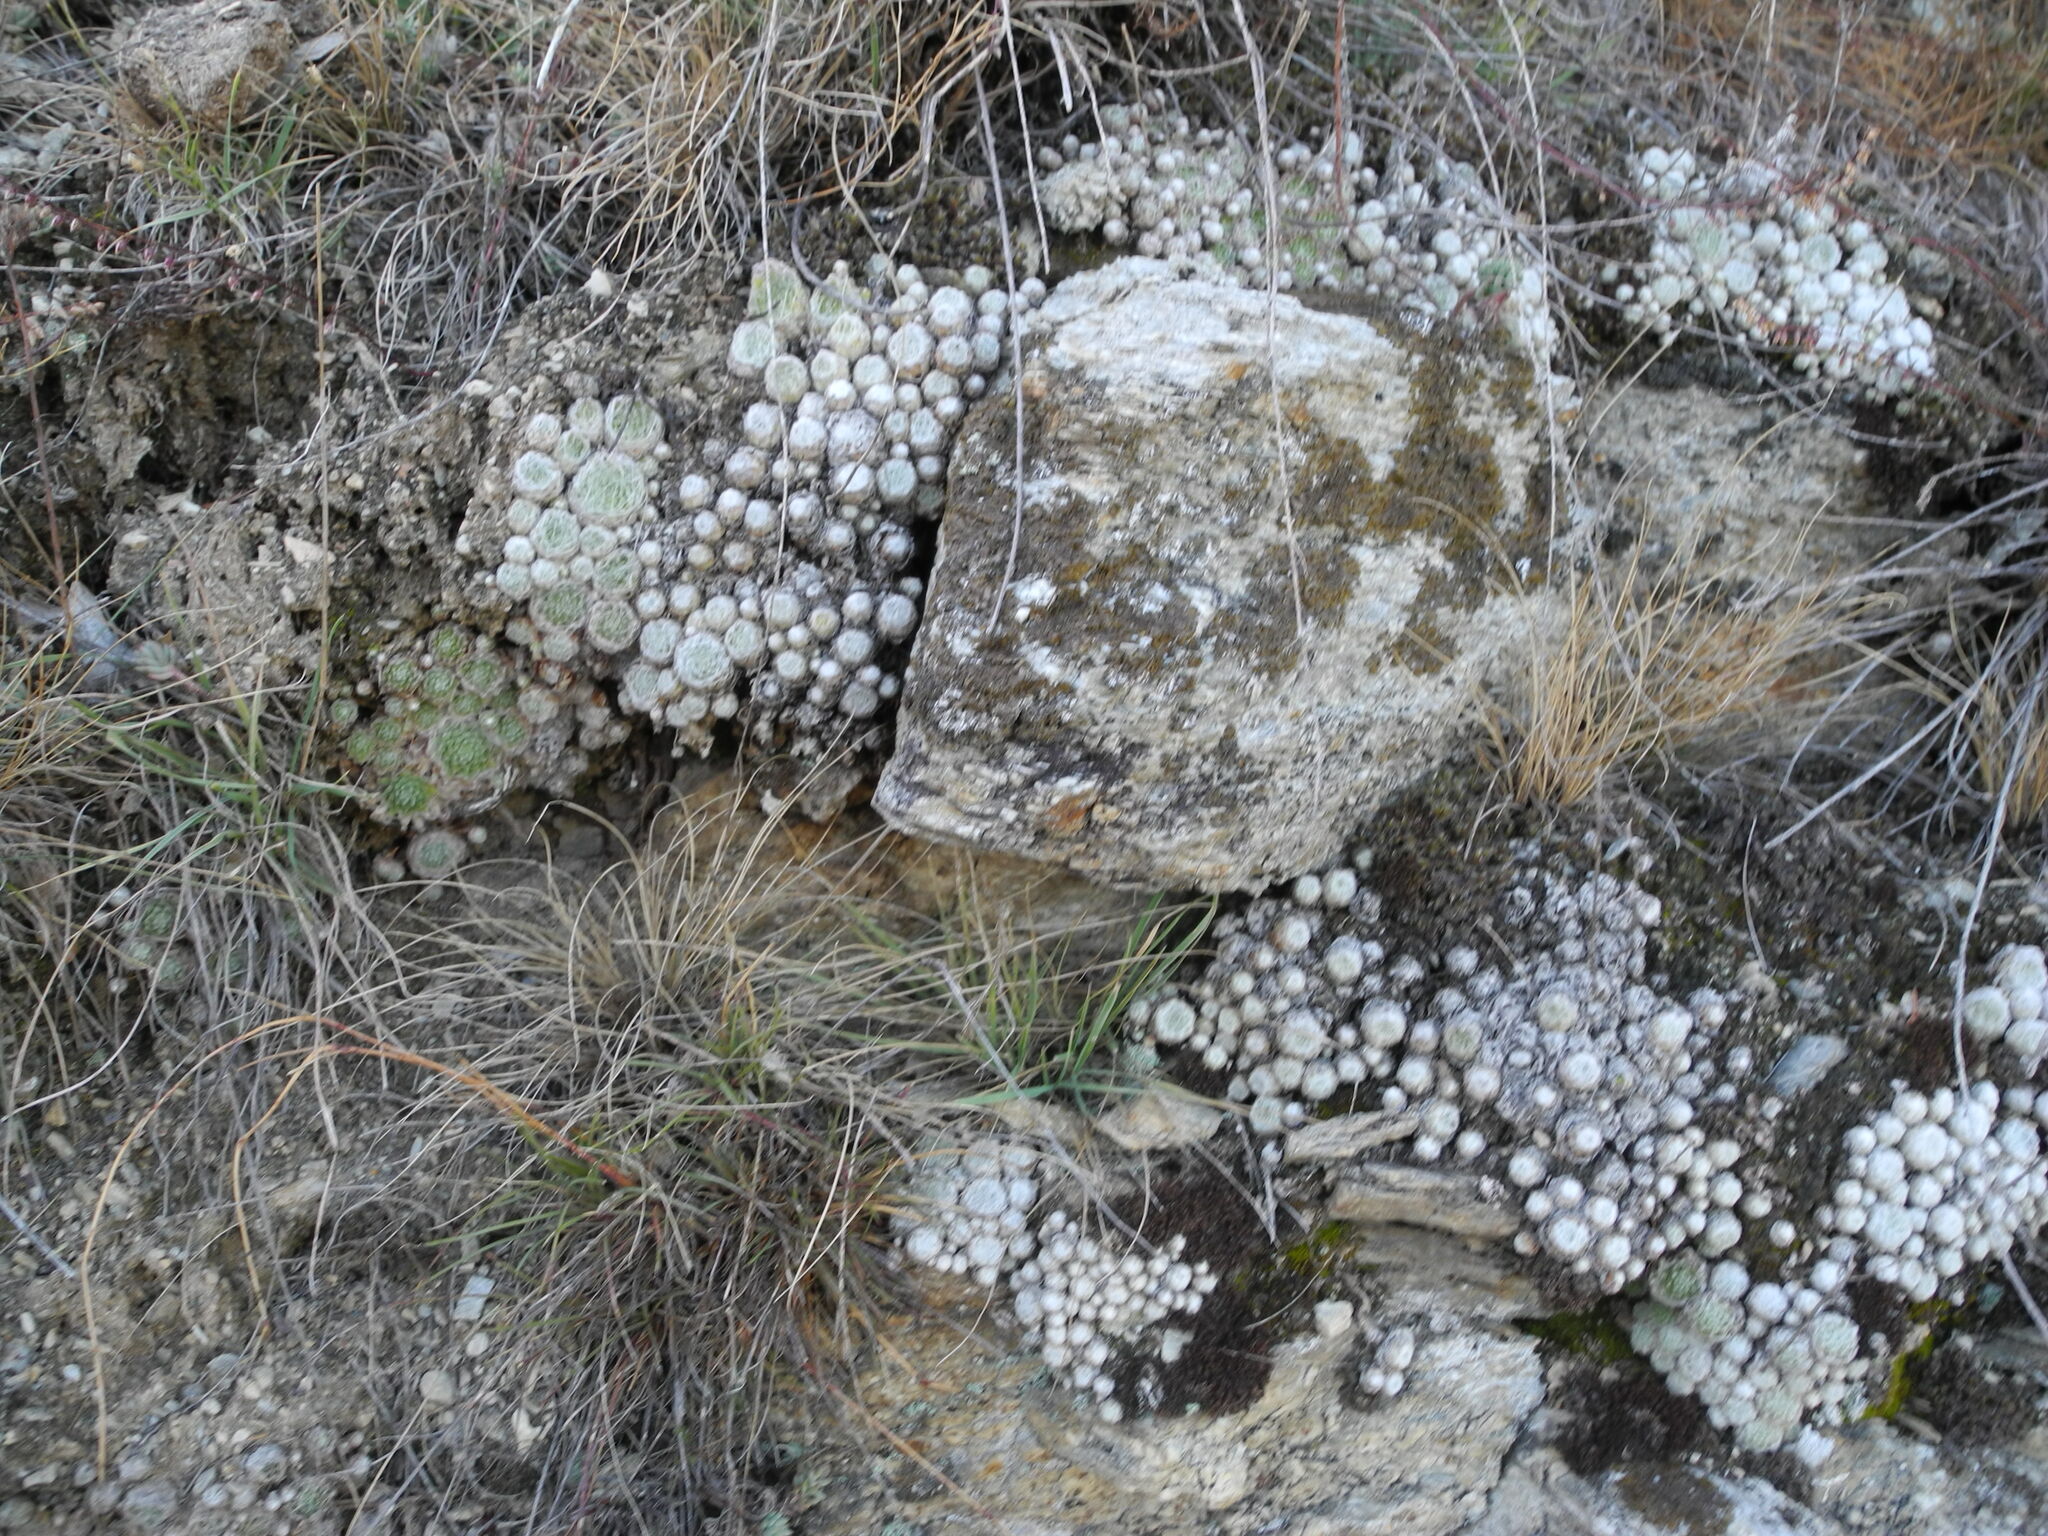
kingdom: Plantae
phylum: Tracheophyta
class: Magnoliopsida
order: Saxifragales
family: Crassulaceae
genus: Sempervivum
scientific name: Sempervivum arachnoideum
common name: Cobweb house-leek
